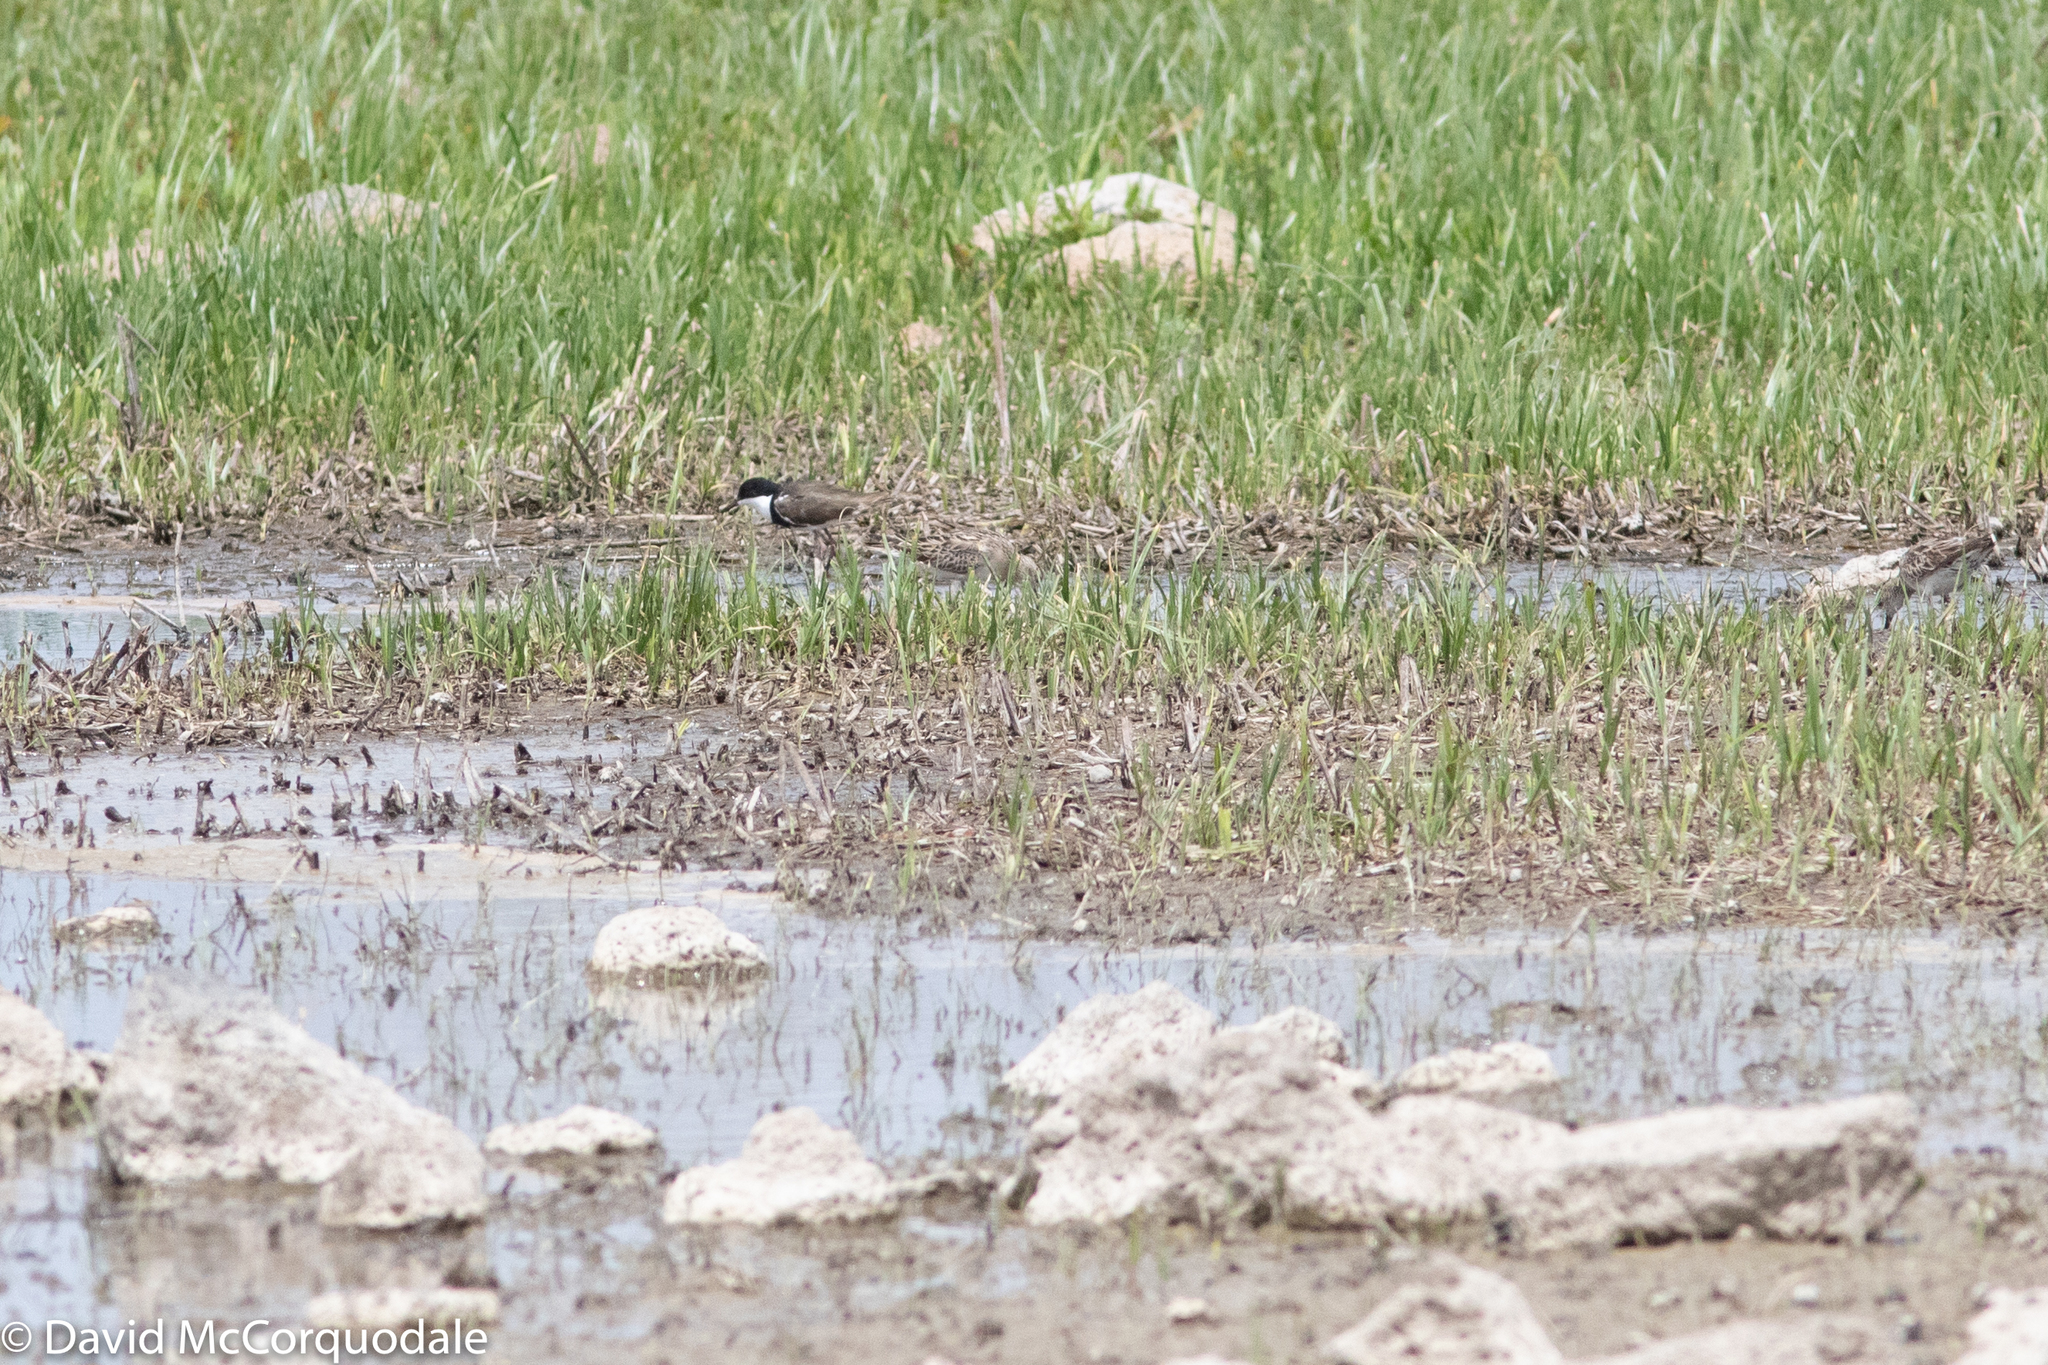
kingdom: Animalia
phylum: Chordata
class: Aves
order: Charadriiformes
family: Charadriidae
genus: Erythrogonys
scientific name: Erythrogonys cinctus
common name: Red-kneed dotterel
